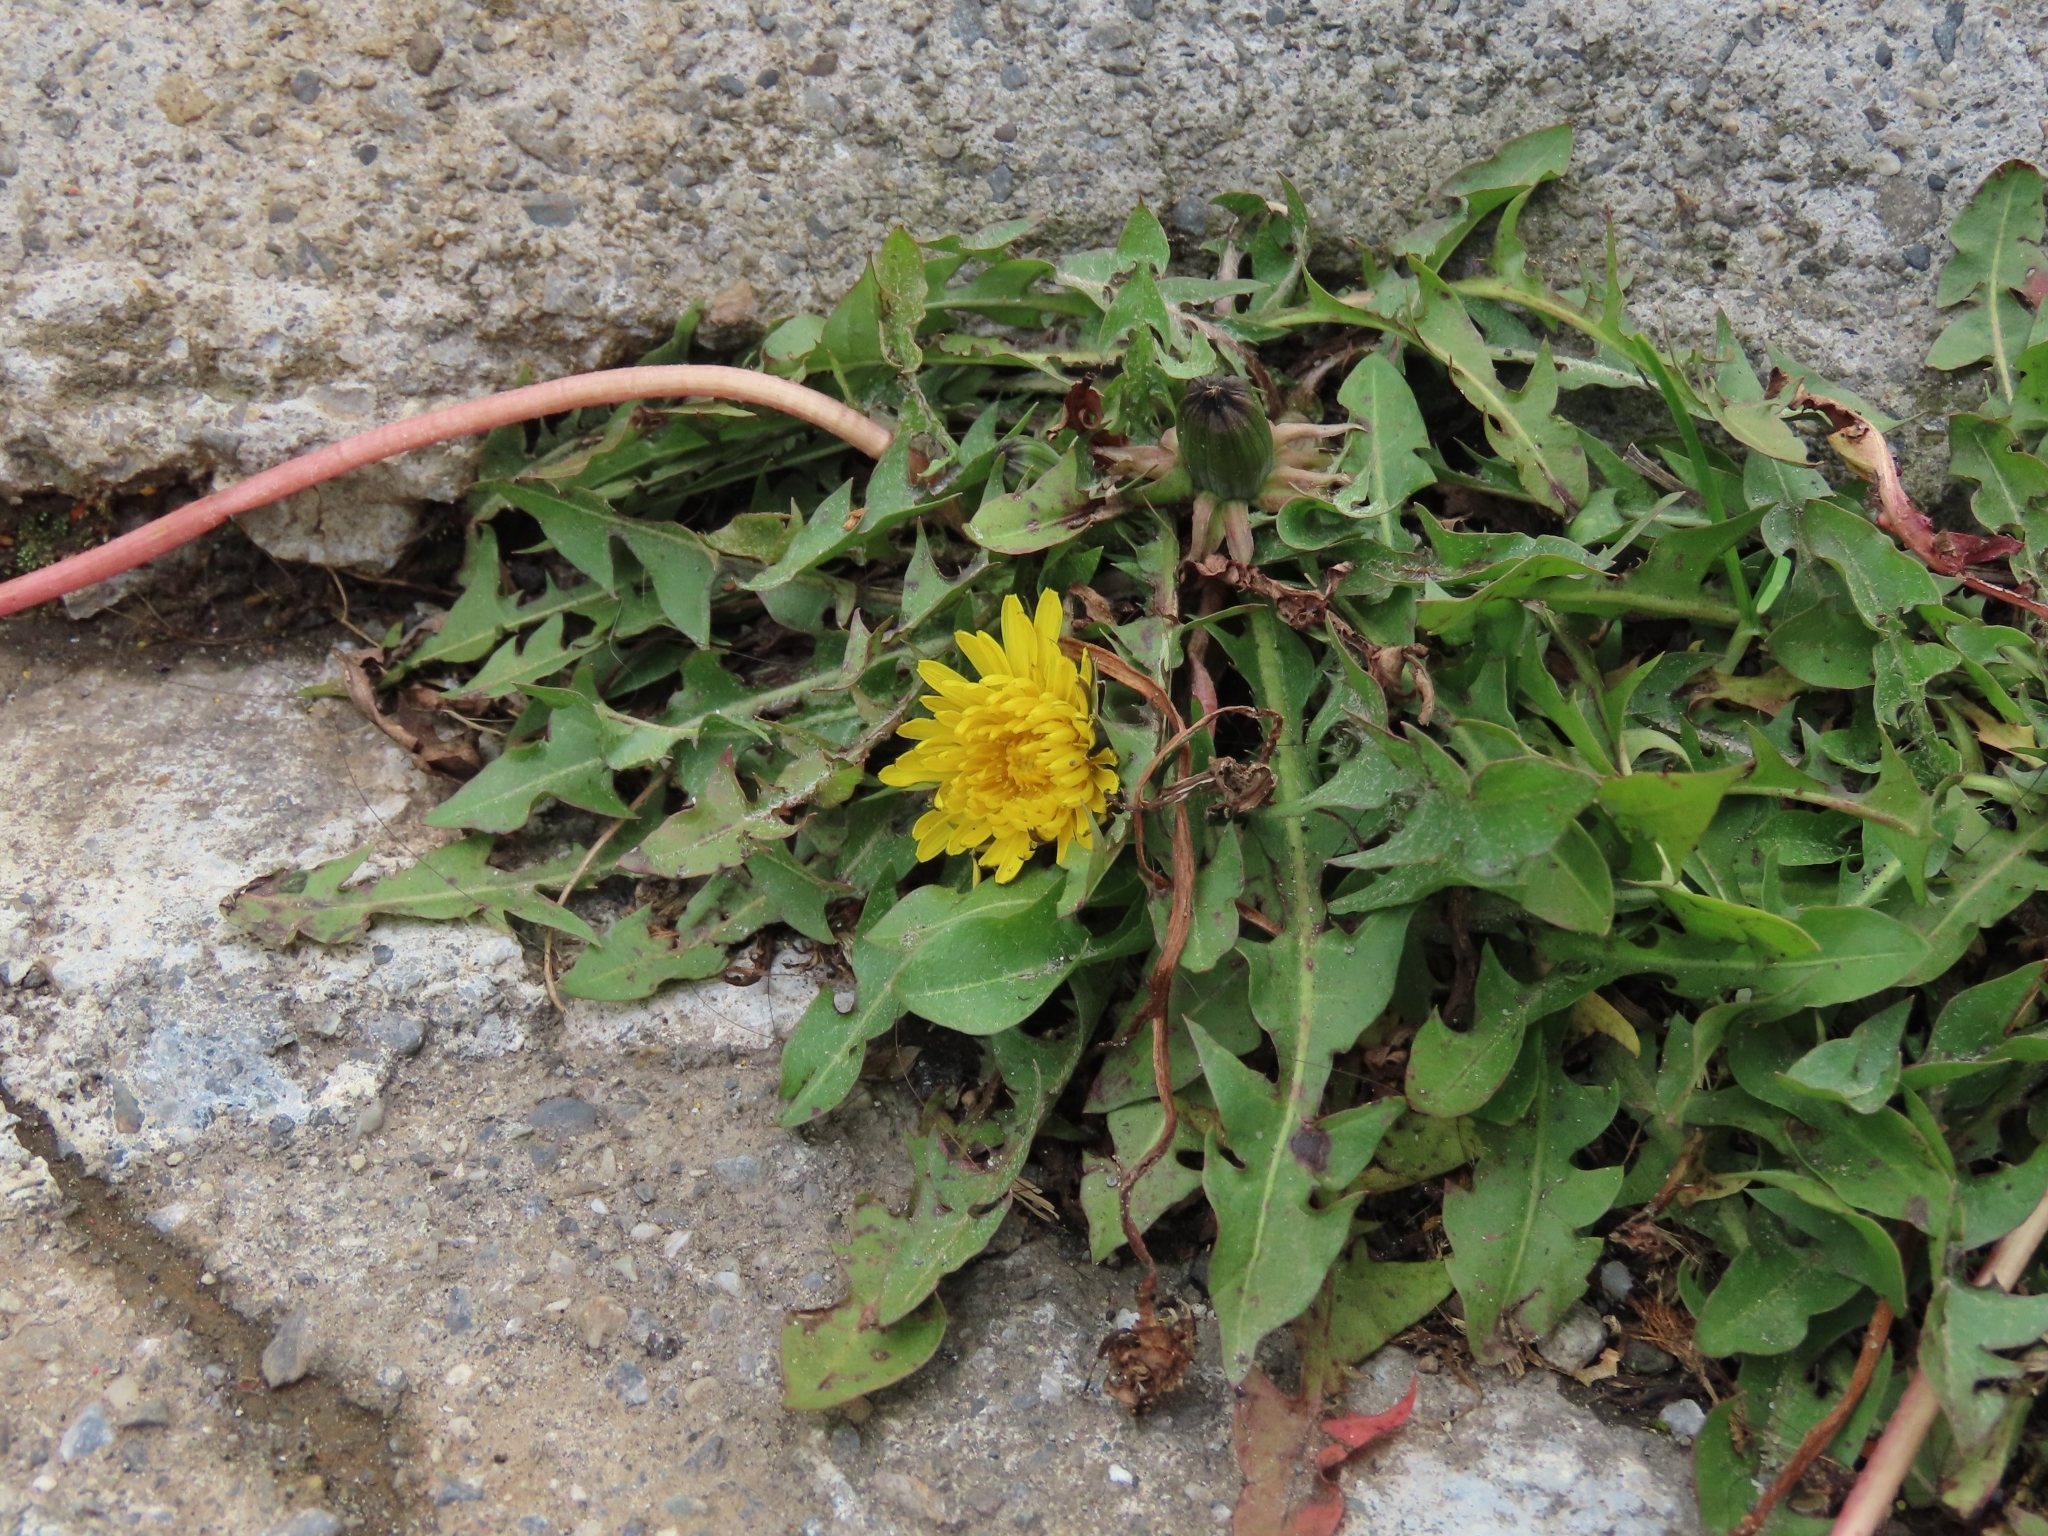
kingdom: Plantae
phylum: Tracheophyta
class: Magnoliopsida
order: Asterales
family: Asteraceae
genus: Taraxacum
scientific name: Taraxacum officinale
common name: Common dandelion
